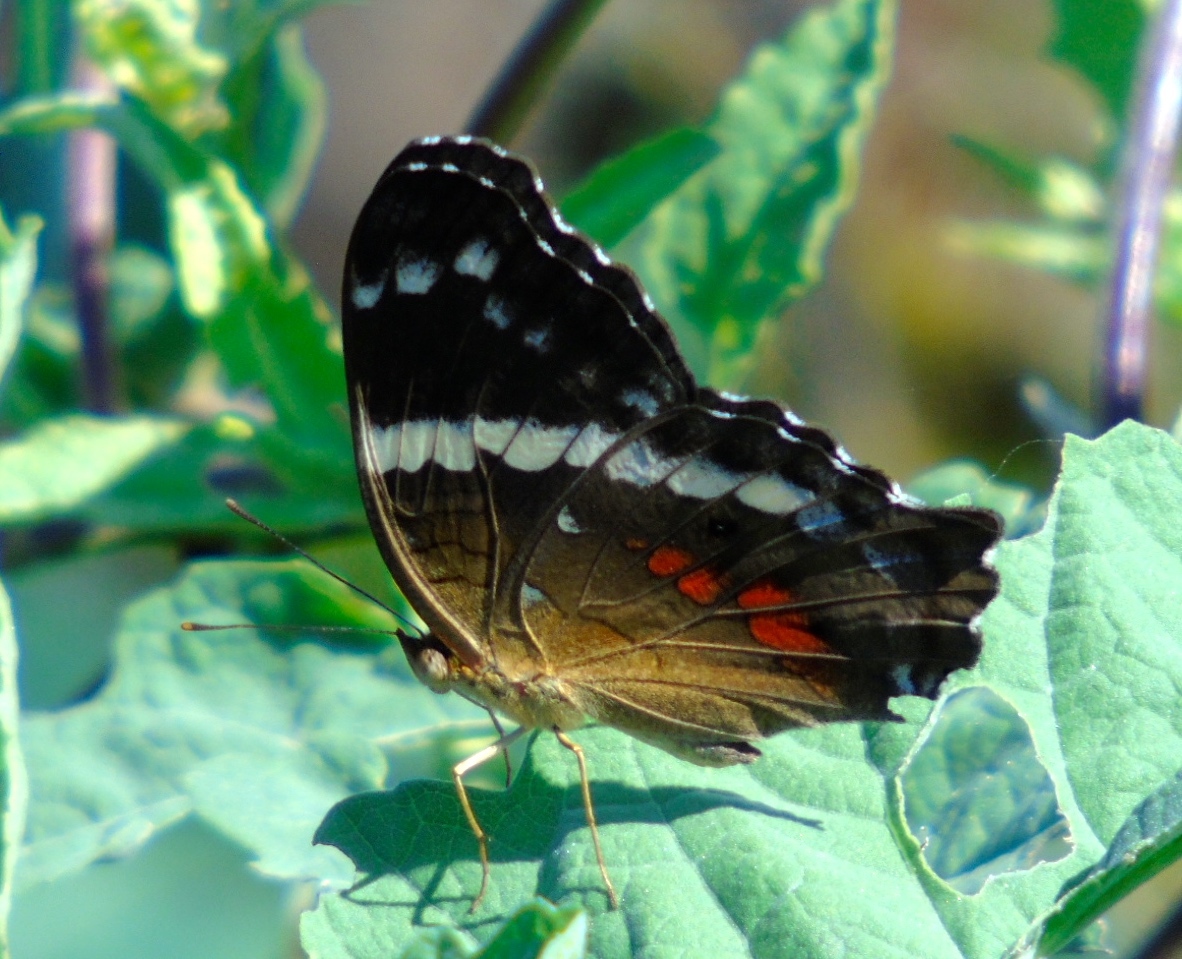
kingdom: Animalia
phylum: Arthropoda
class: Insecta
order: Lepidoptera
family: Nymphalidae
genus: Anartia
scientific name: Anartia fatima
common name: Banded peacock
